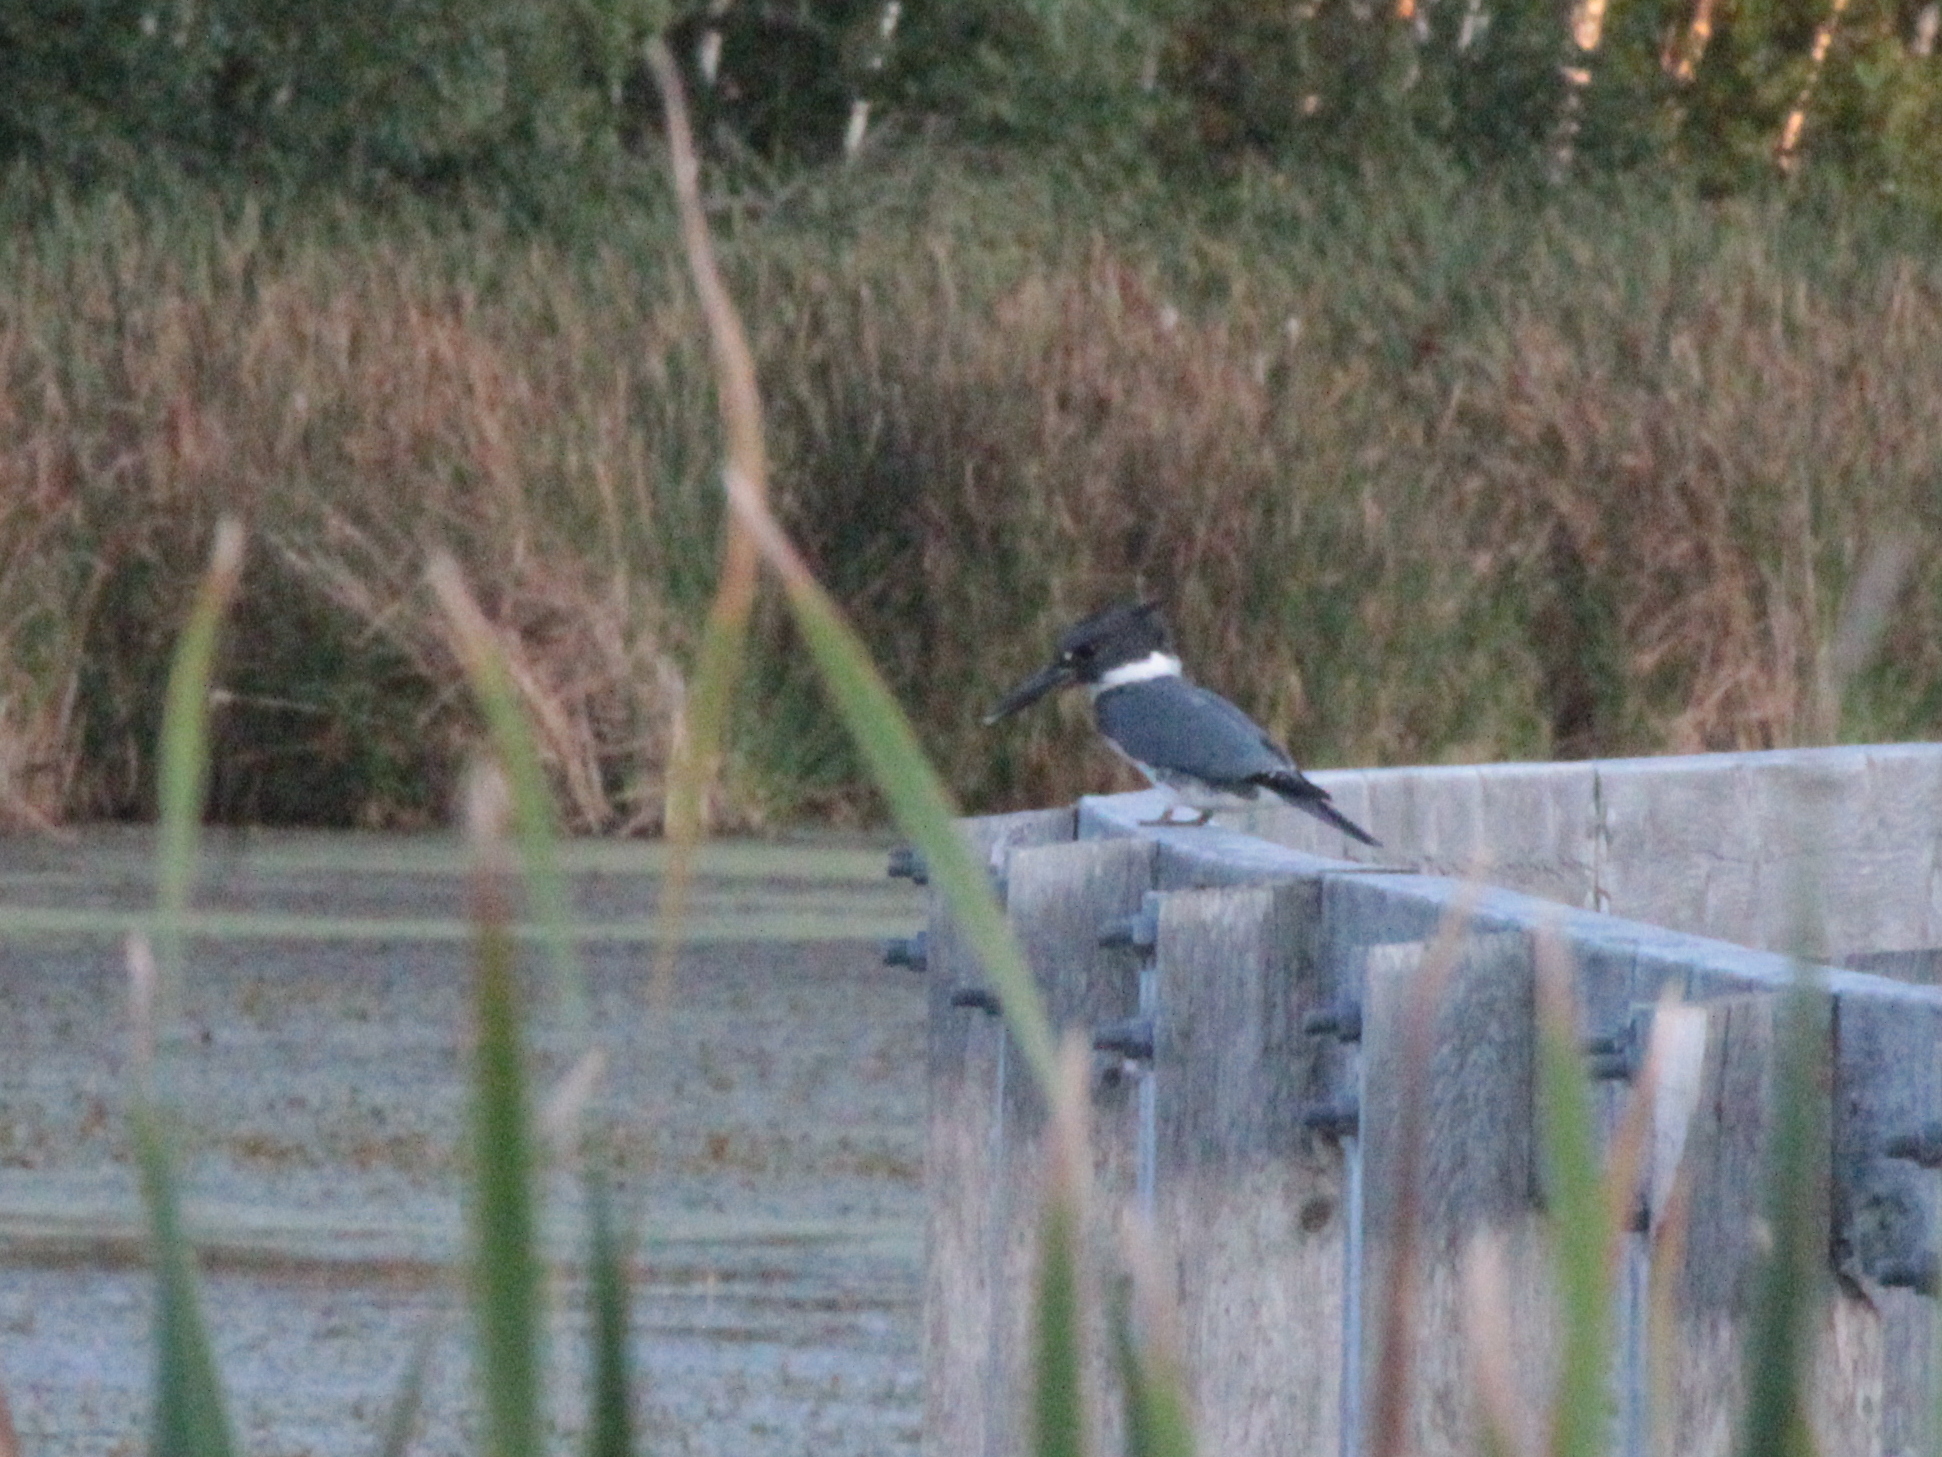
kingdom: Animalia
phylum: Chordata
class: Aves
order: Coraciiformes
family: Alcedinidae
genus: Megaceryle
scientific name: Megaceryle alcyon
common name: Belted kingfisher
